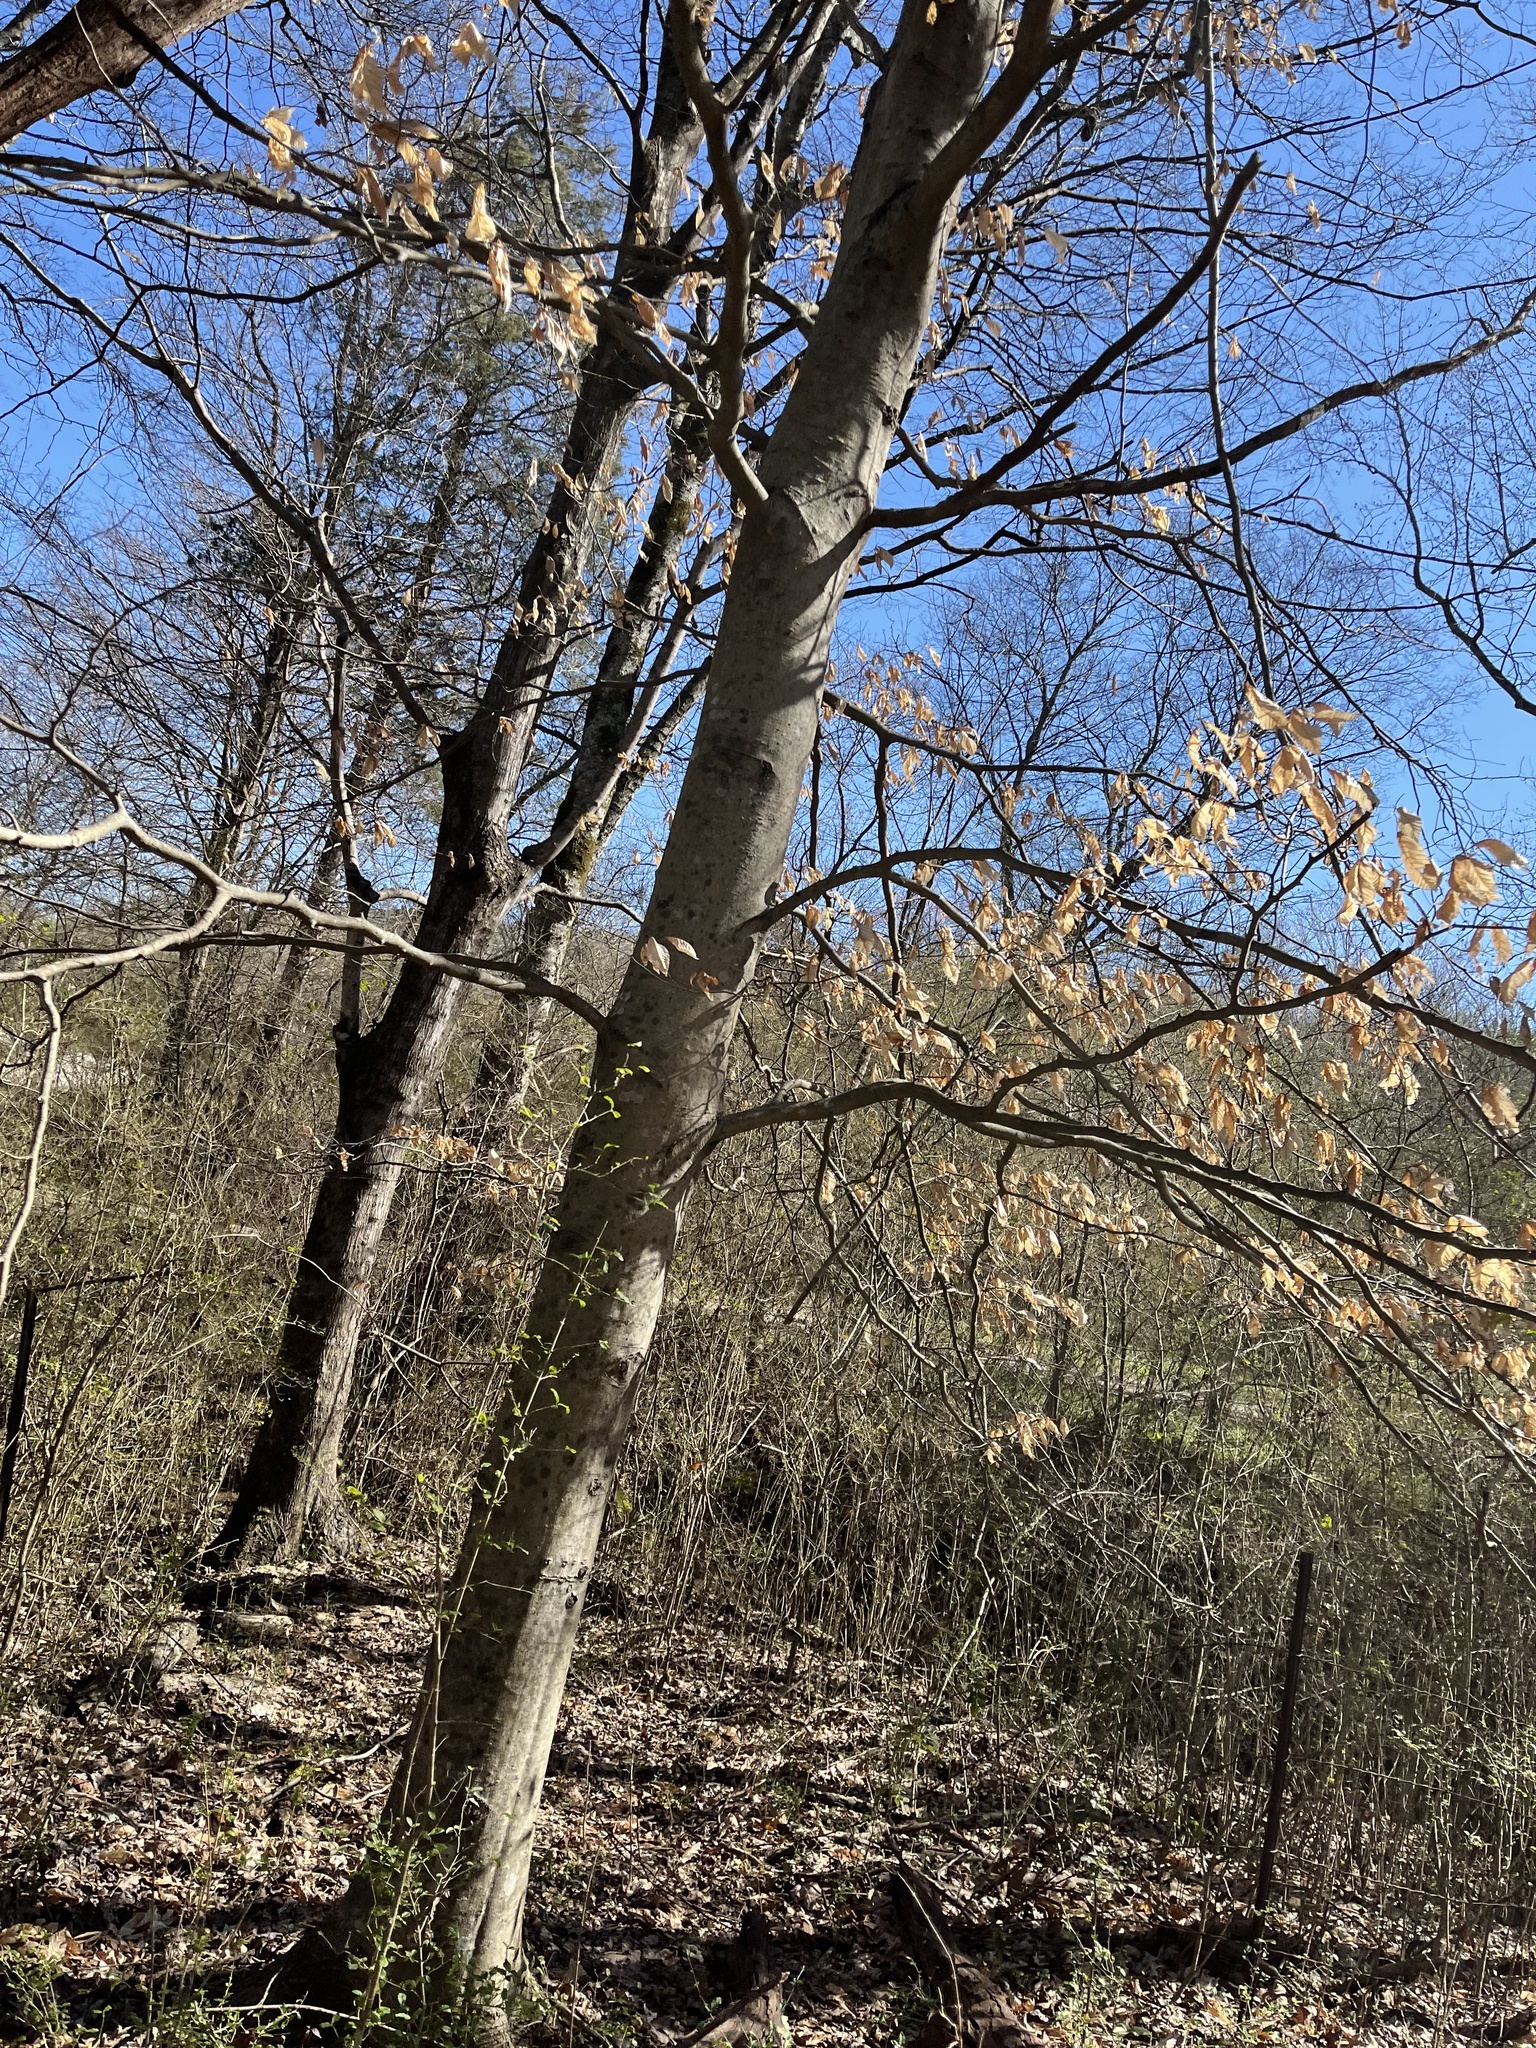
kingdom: Plantae
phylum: Tracheophyta
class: Magnoliopsida
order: Fagales
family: Fagaceae
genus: Fagus
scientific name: Fagus grandifolia
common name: American beech
